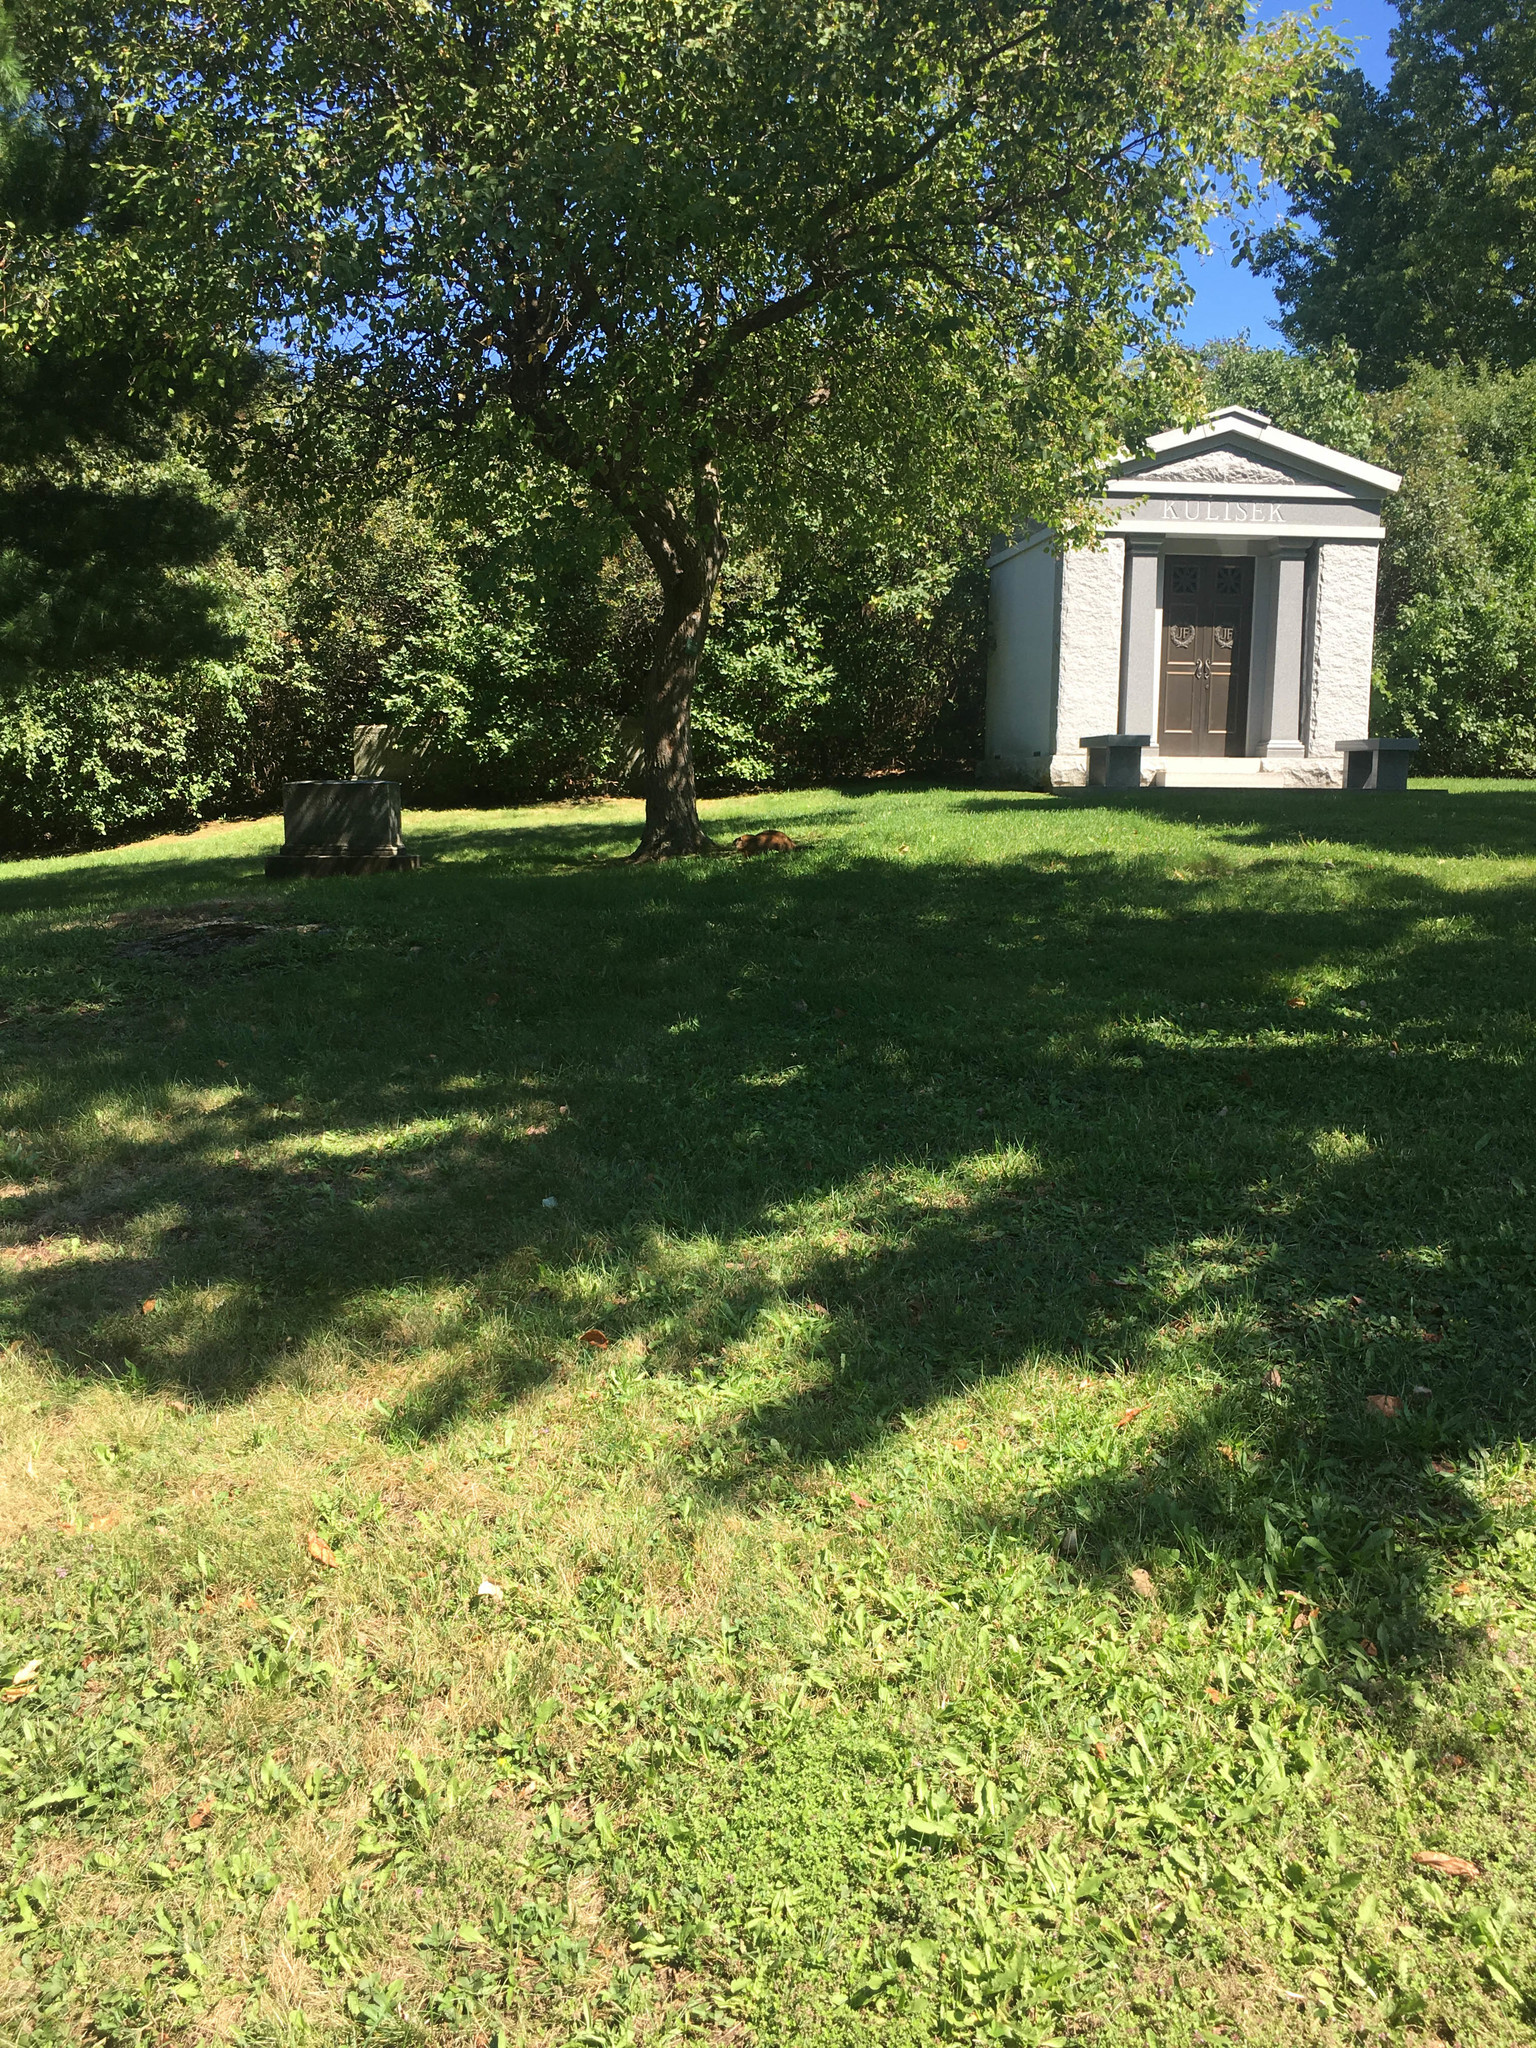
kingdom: Animalia
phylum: Chordata
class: Mammalia
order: Rodentia
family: Sciuridae
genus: Marmota
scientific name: Marmota monax
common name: Groundhog
